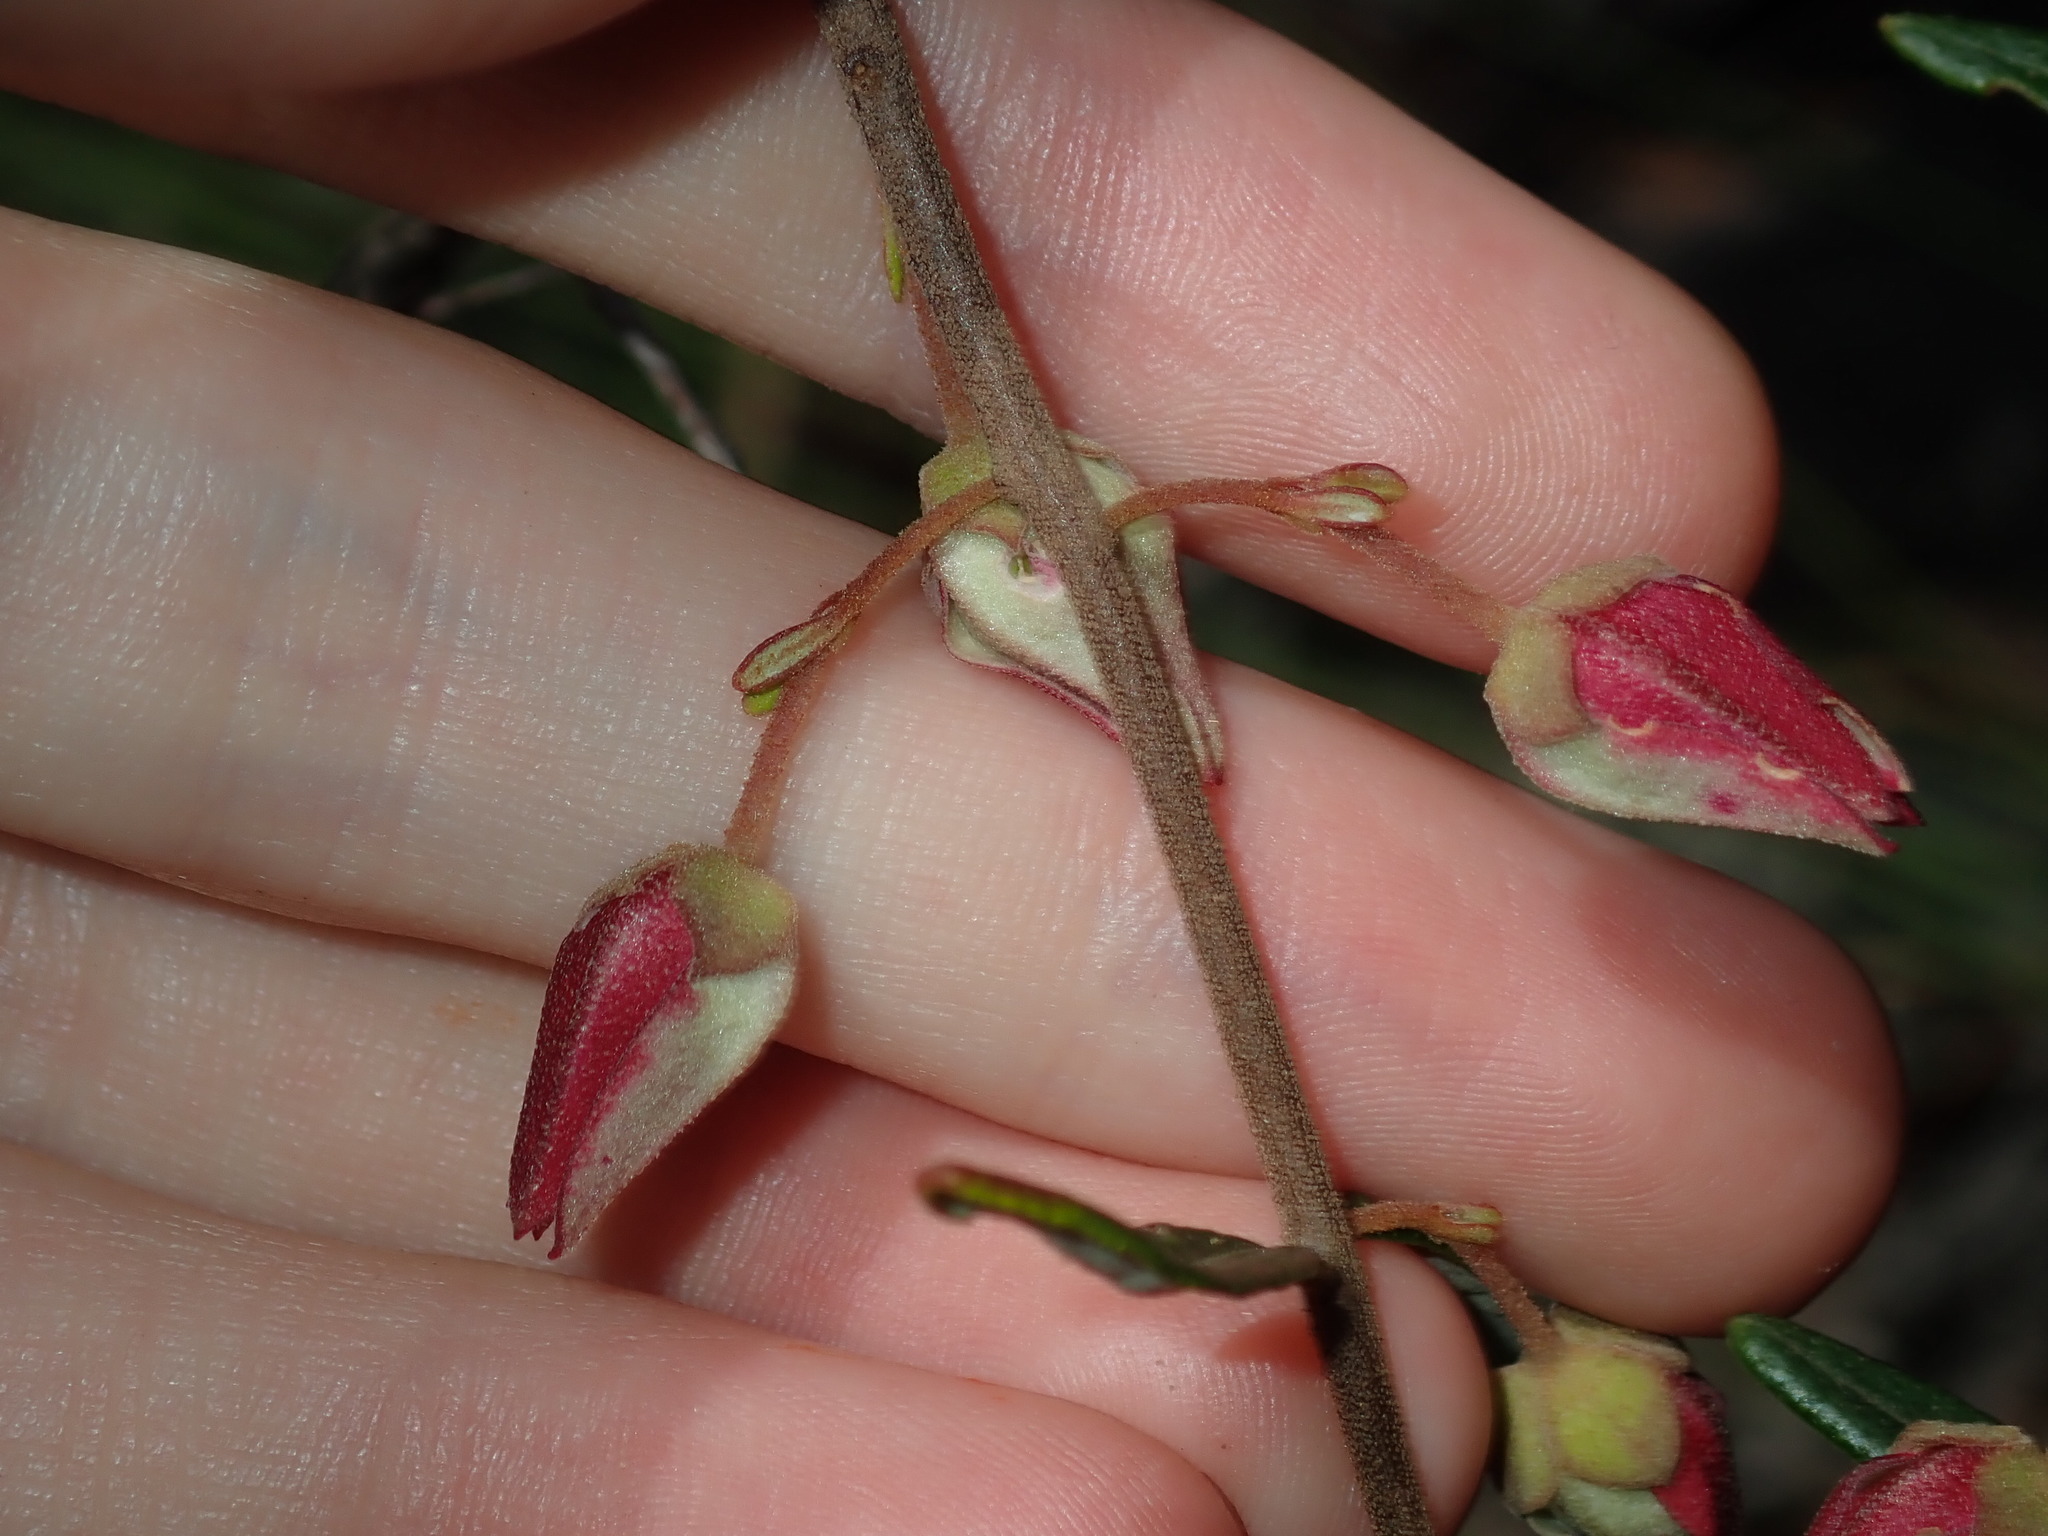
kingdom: Plantae
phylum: Tracheophyta
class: Magnoliopsida
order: Sapindales
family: Rutaceae
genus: Boronia
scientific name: Boronia ledifolia
